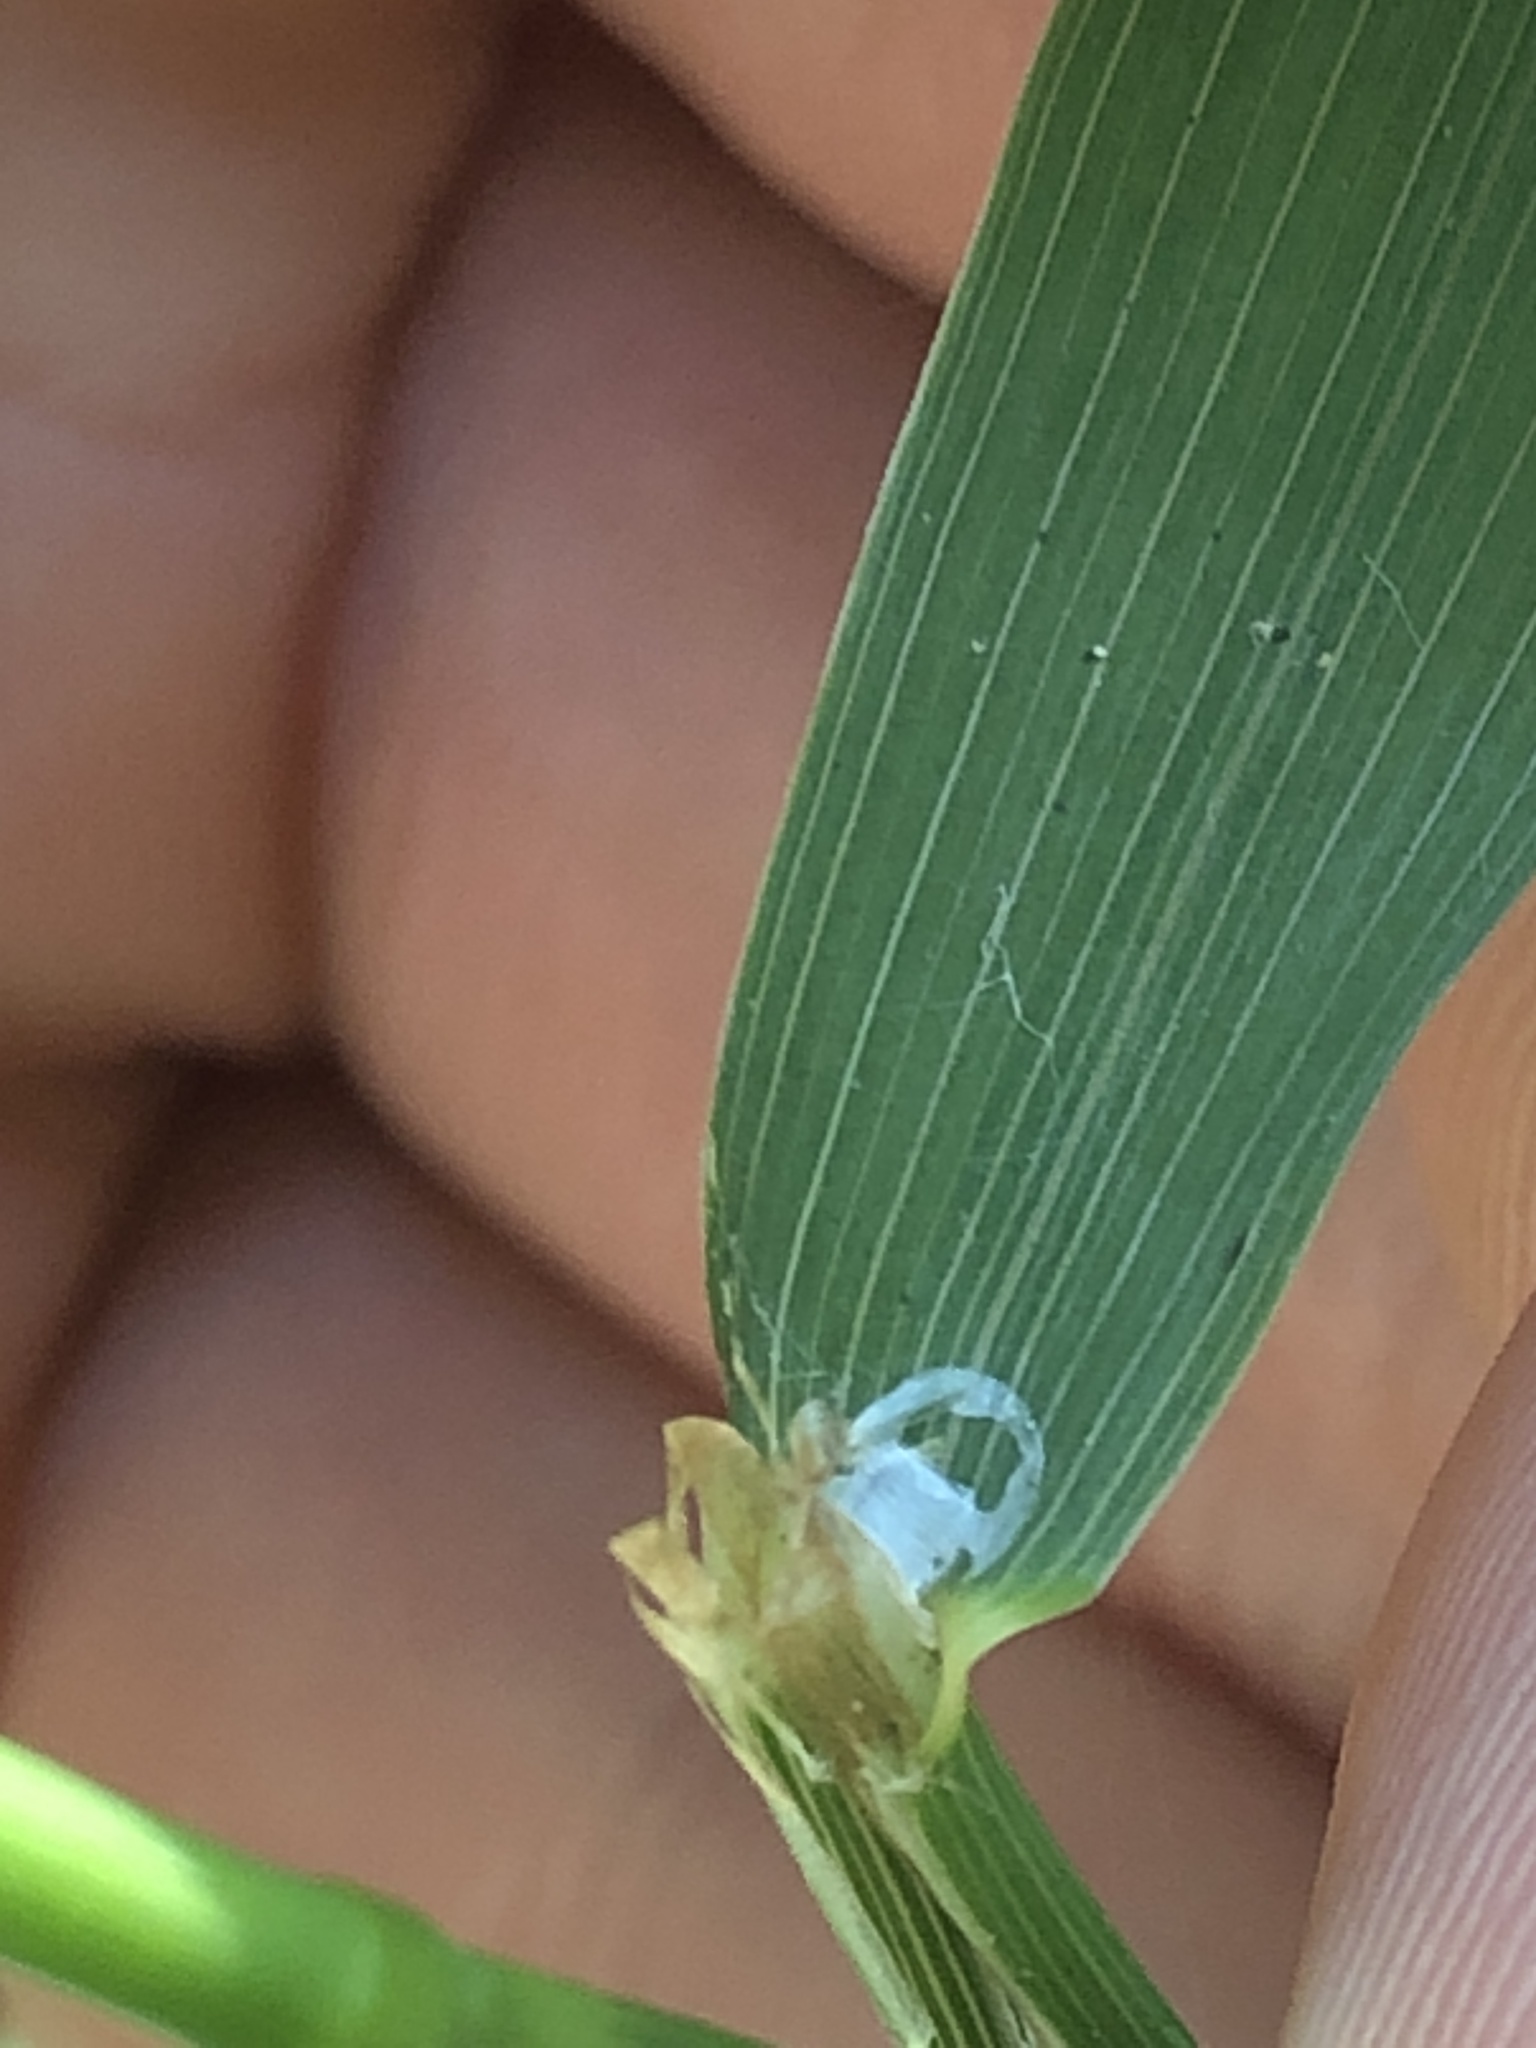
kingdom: Plantae
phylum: Tracheophyta
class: Liliopsida
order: Poales
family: Poaceae
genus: Cinna
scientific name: Cinna arundinacea
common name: Stout woodreed
